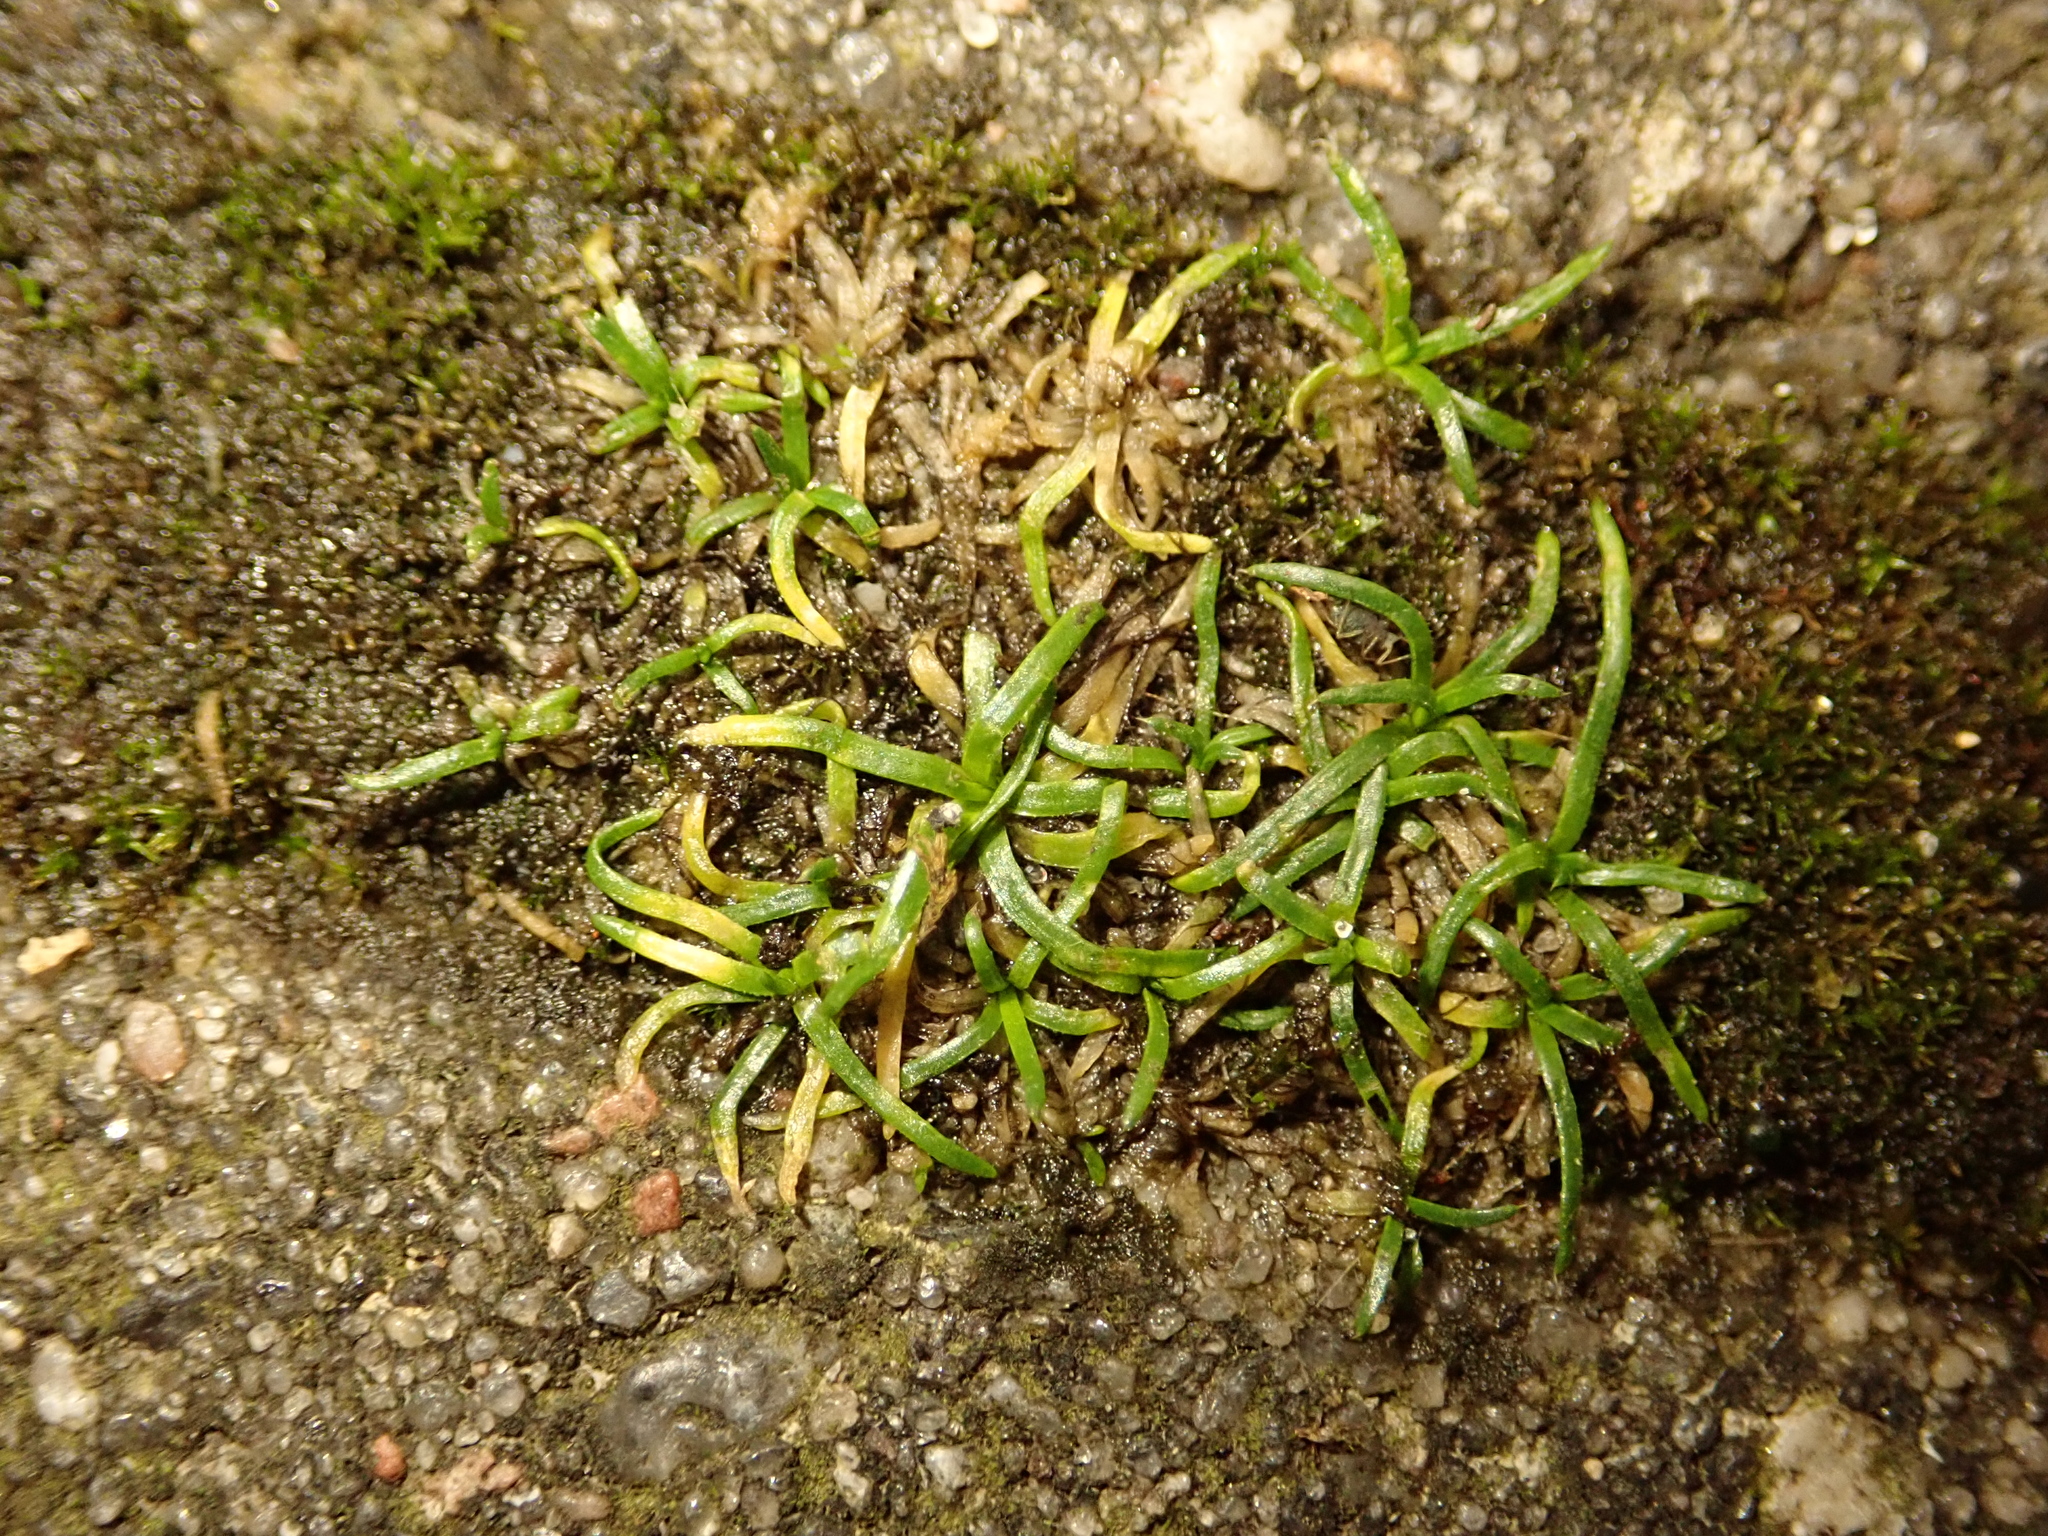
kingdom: Plantae
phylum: Tracheophyta
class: Magnoliopsida
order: Caryophyllales
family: Caryophyllaceae
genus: Sagina
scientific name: Sagina procumbens
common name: Procumbent pearlwort
